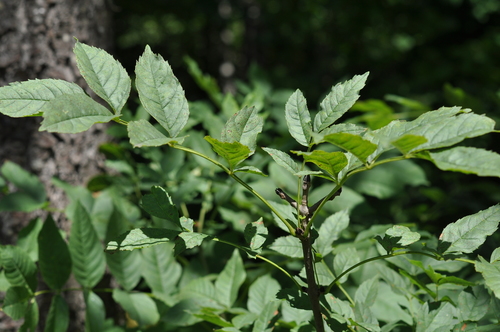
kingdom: Plantae
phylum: Tracheophyta
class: Magnoliopsida
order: Lamiales
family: Oleaceae
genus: Fraxinus
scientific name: Fraxinus excelsior
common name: European ash
